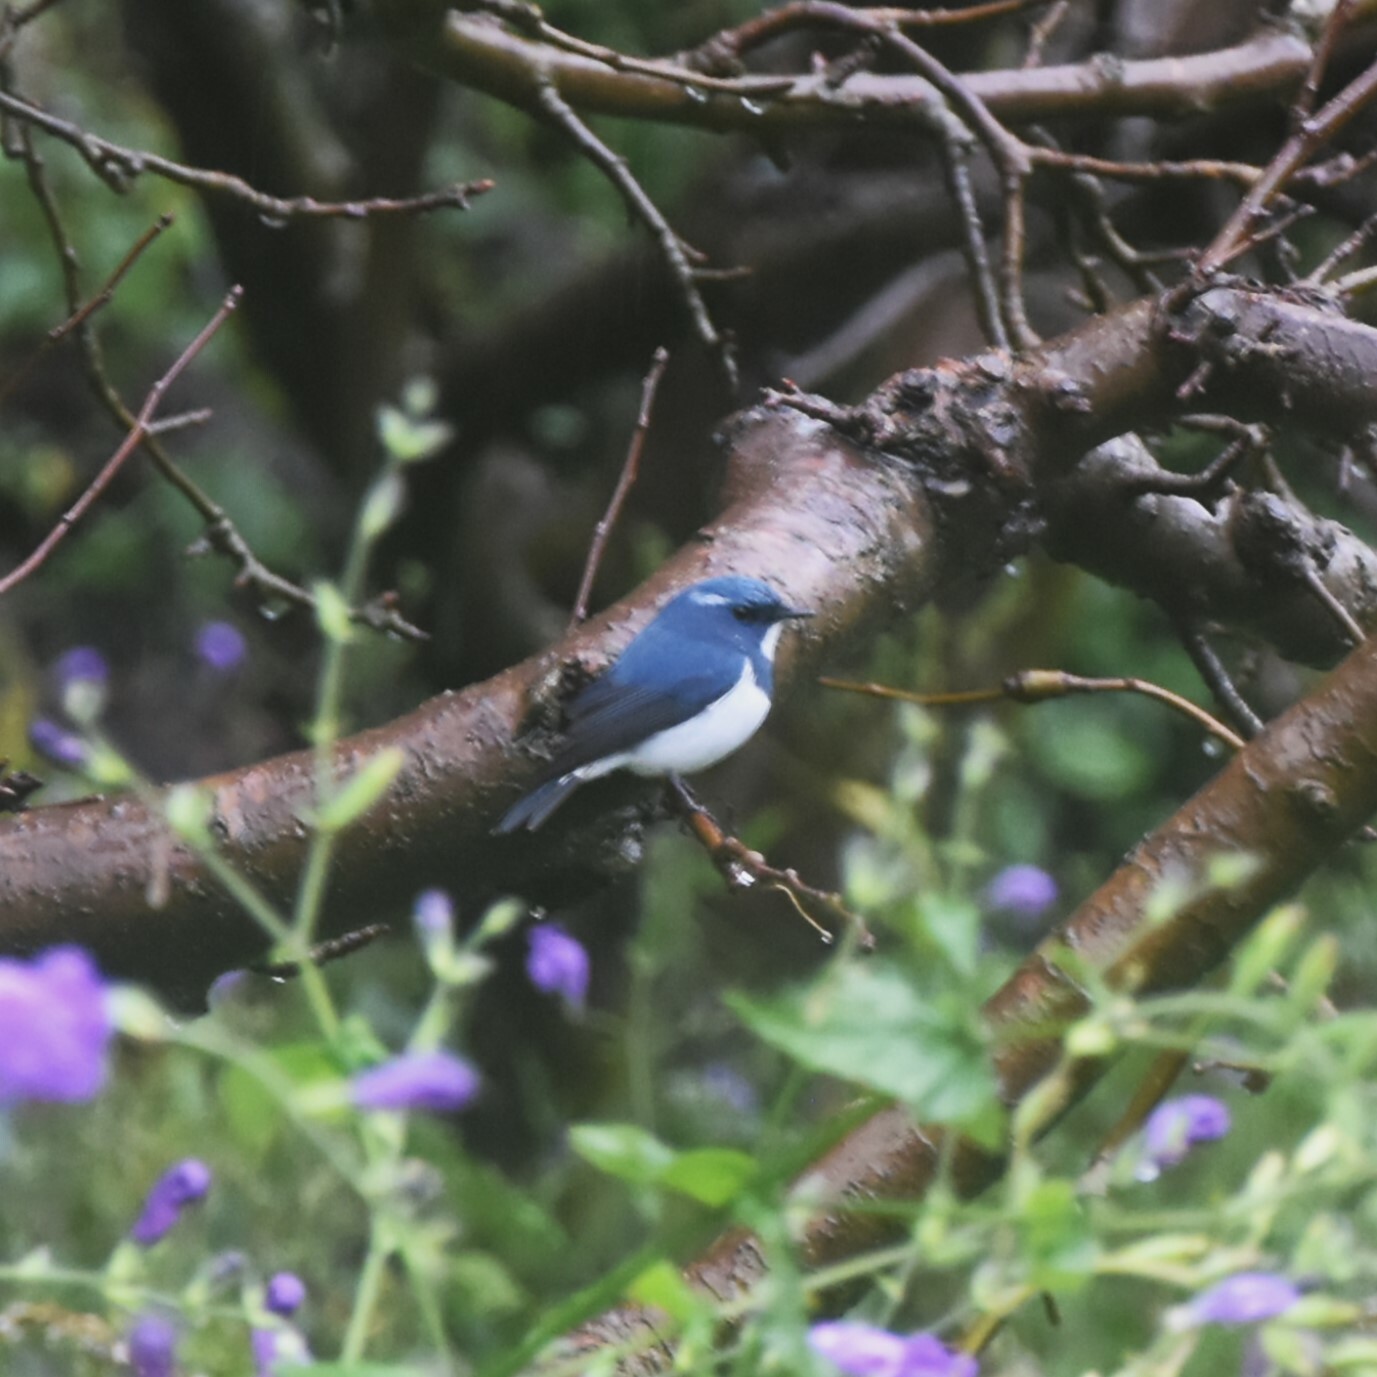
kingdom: Animalia
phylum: Chordata
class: Aves
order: Passeriformes
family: Muscicapidae
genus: Ficedula
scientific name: Ficedula superciliaris
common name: Ultramarine flycatcher
